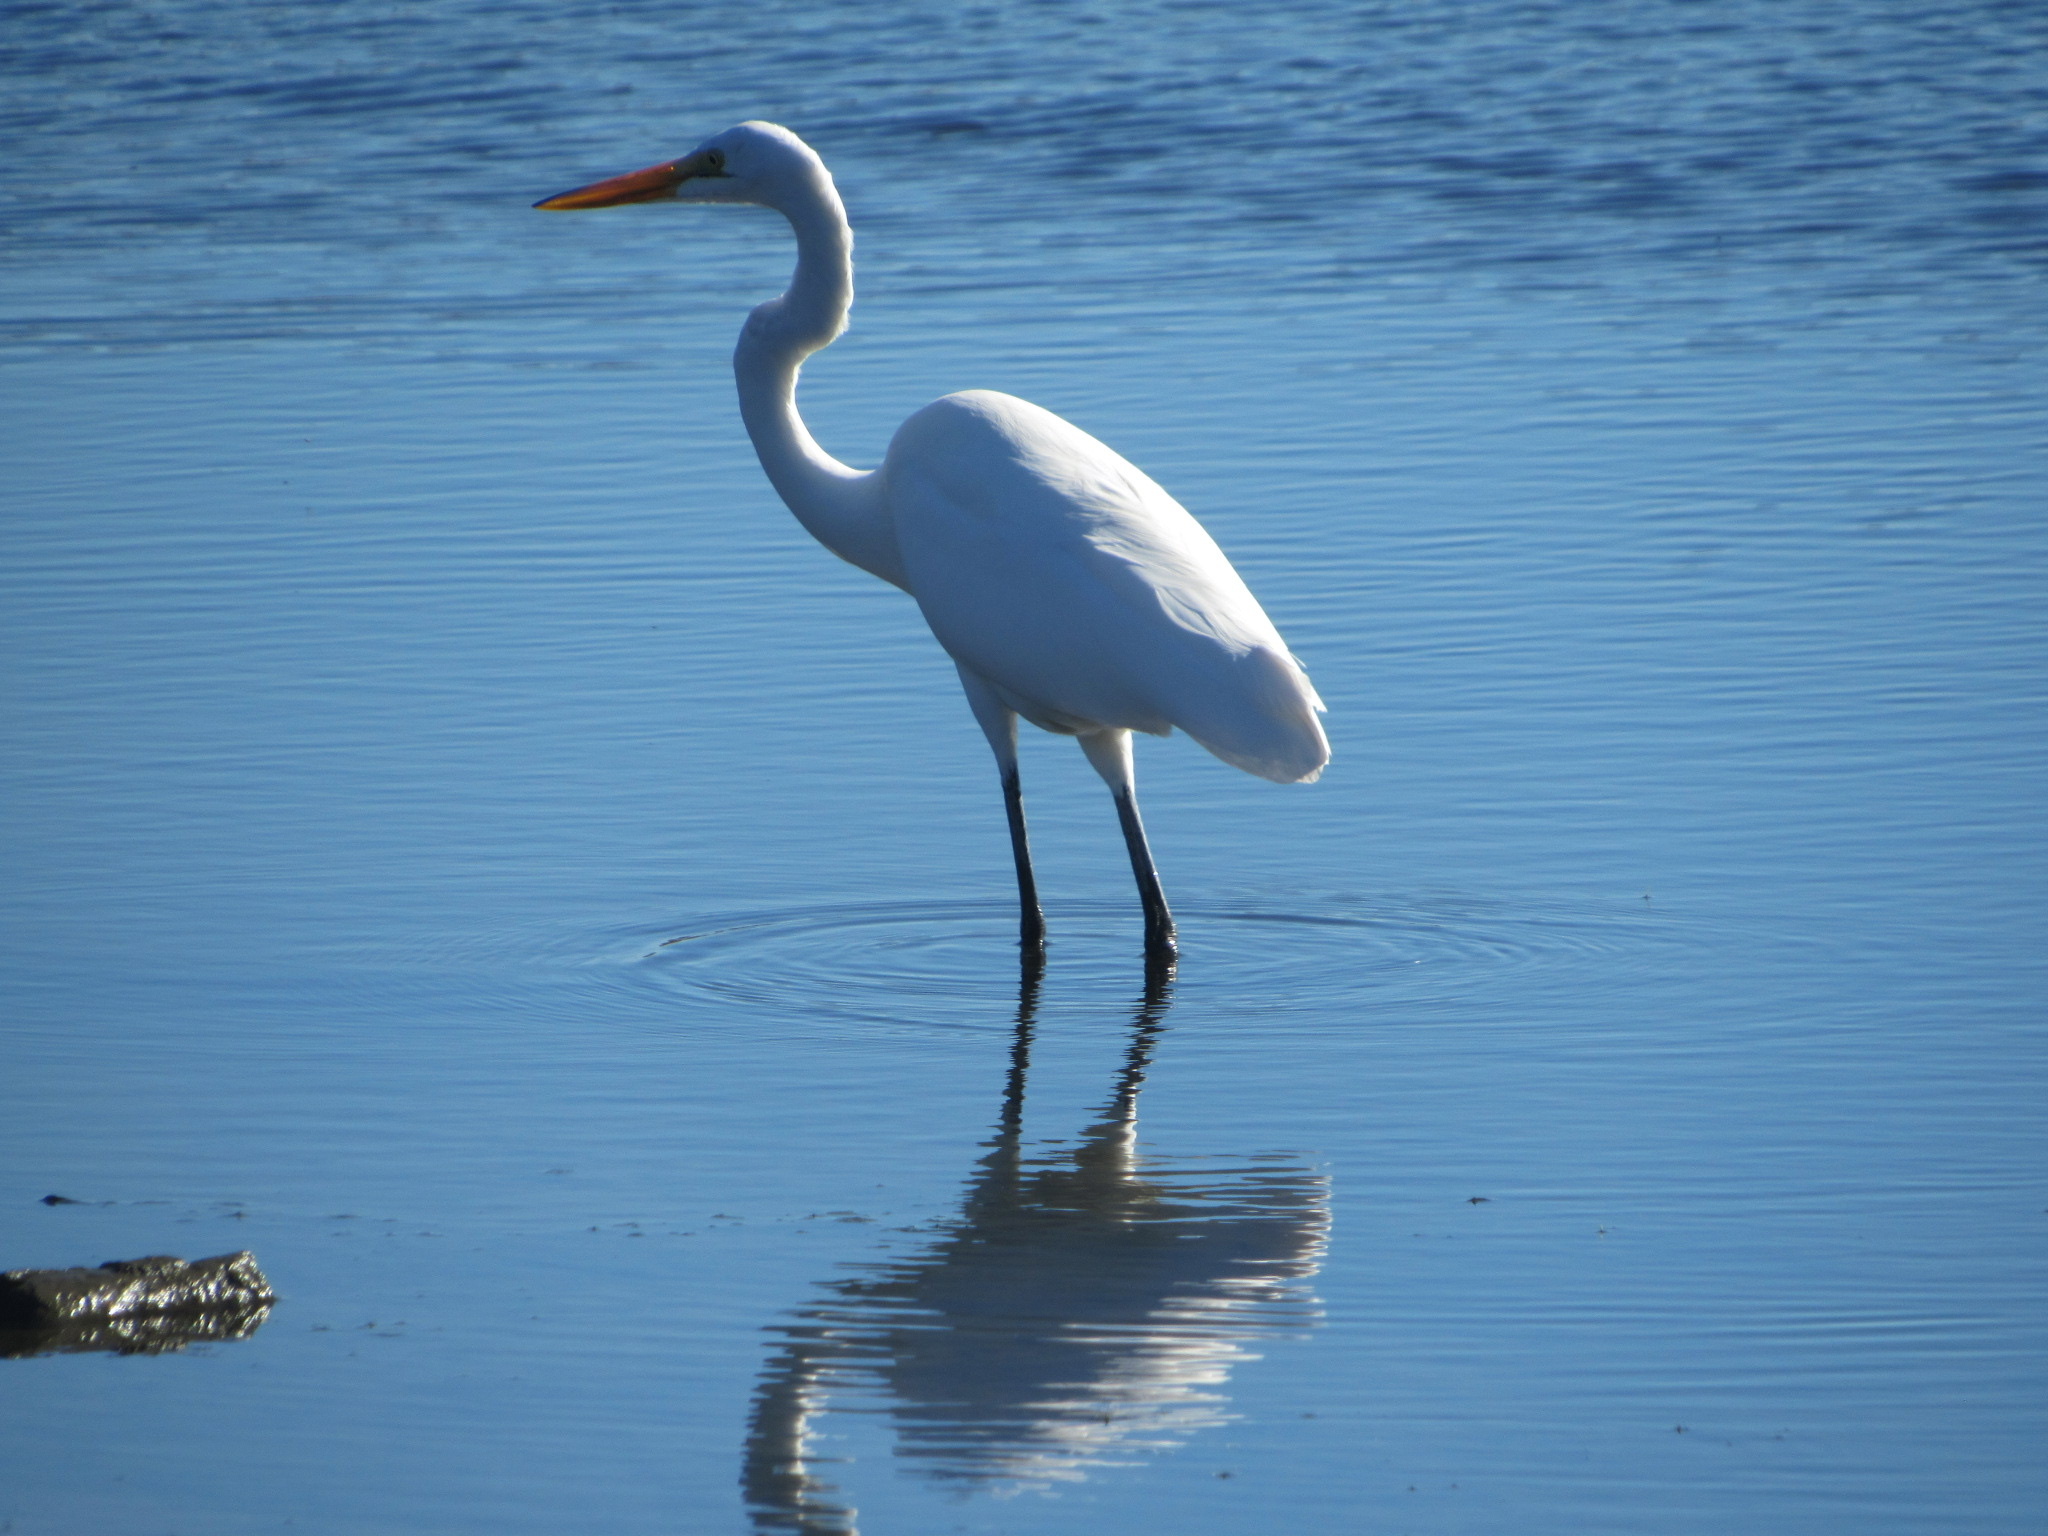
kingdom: Animalia
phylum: Chordata
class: Aves
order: Pelecaniformes
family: Ardeidae
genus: Ardea
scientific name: Ardea alba
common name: Great egret
